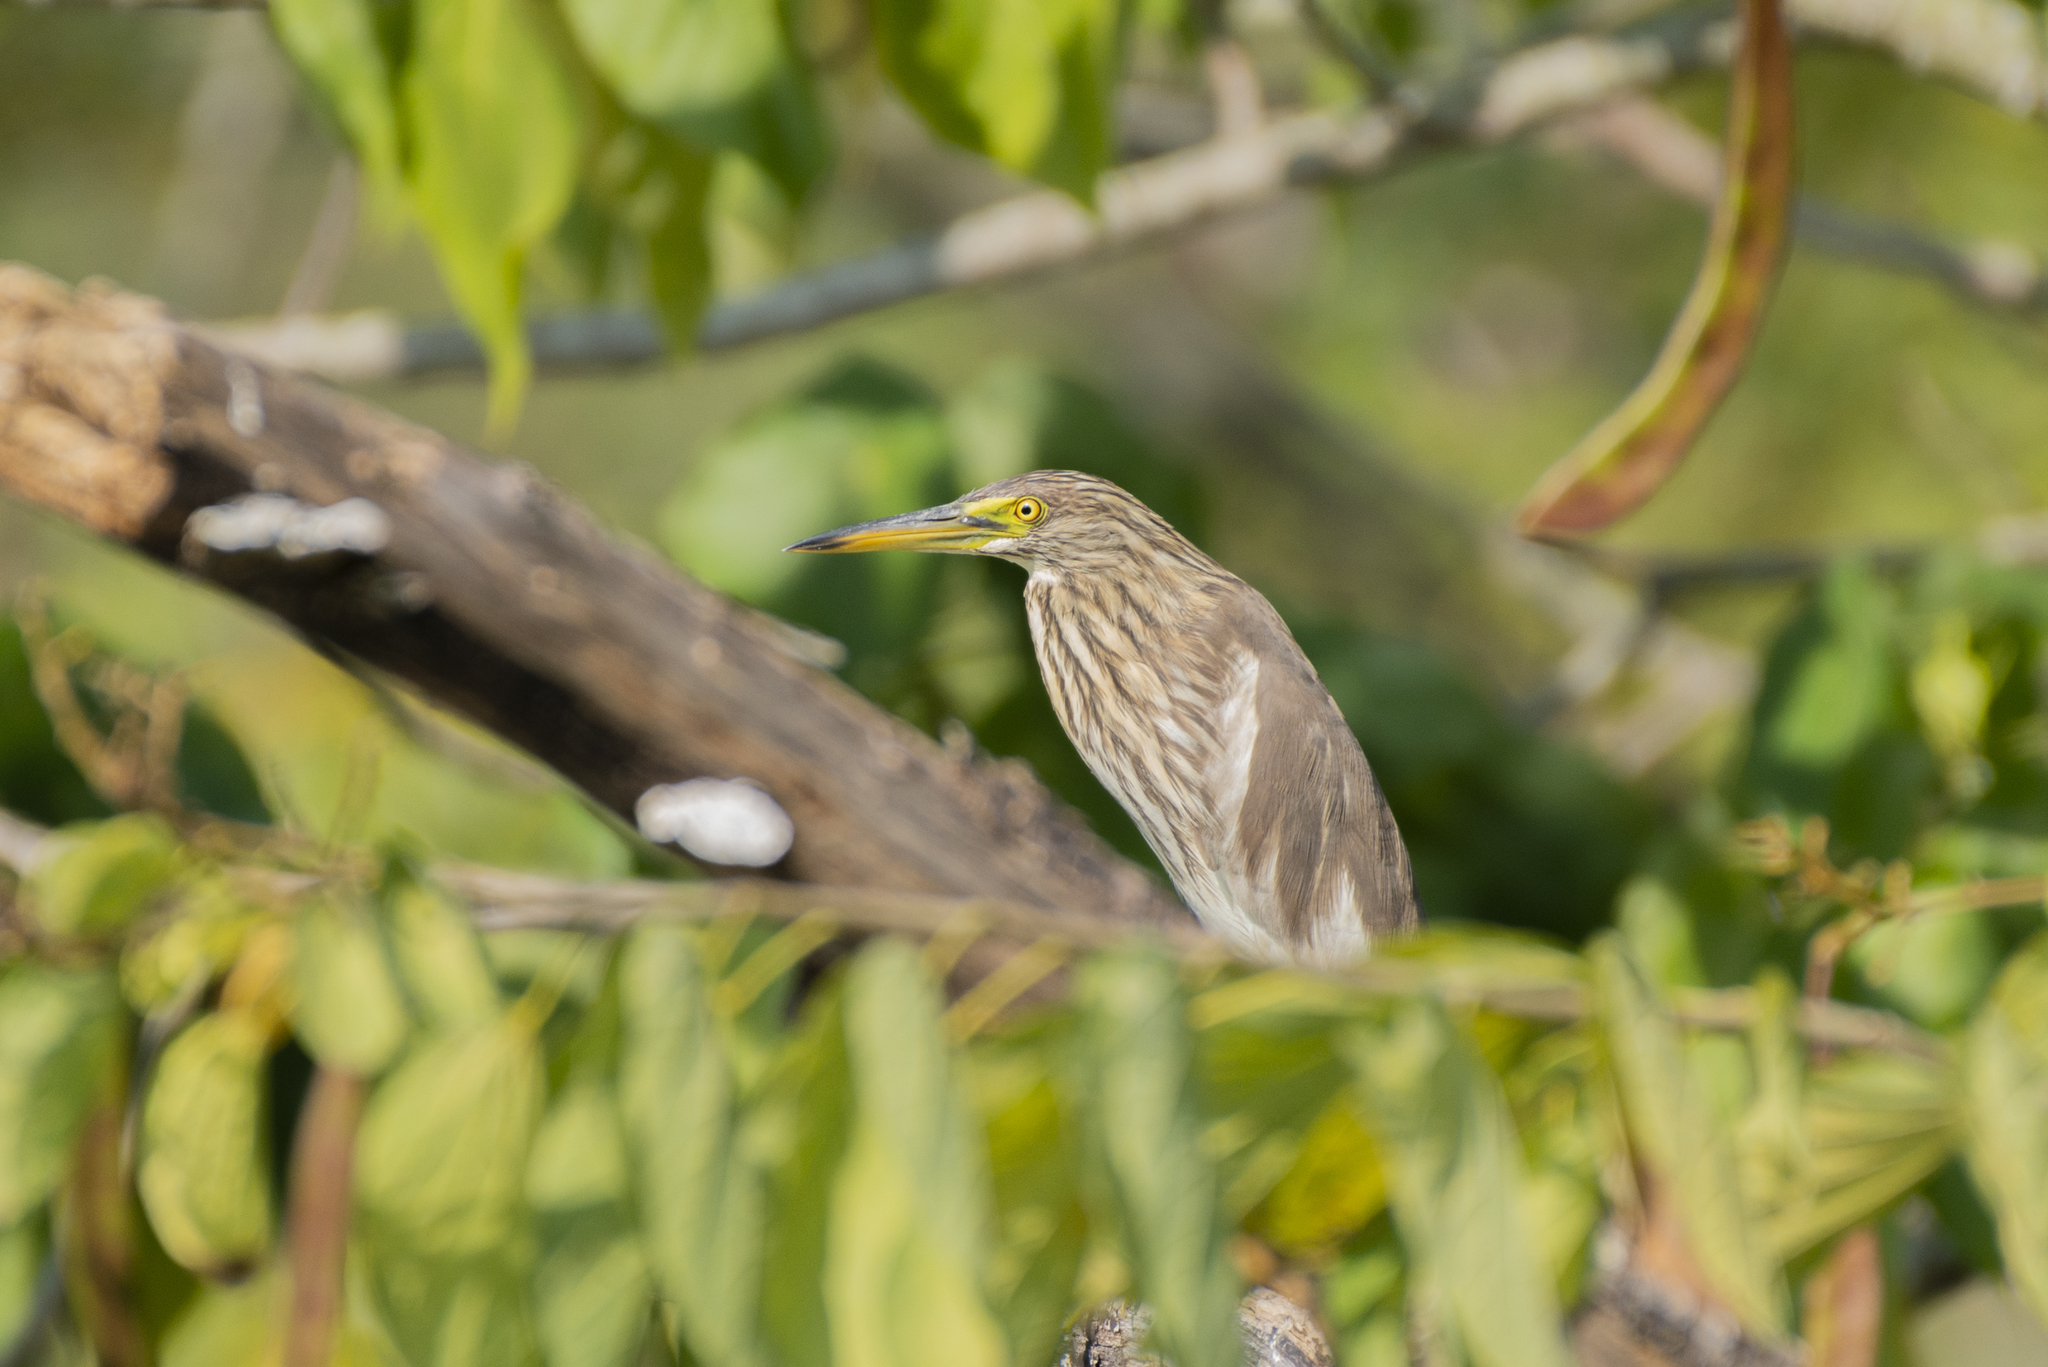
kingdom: Animalia
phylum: Chordata
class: Aves
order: Pelecaniformes
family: Ardeidae
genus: Ardeola
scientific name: Ardeola bacchus
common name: Chinese pond heron
